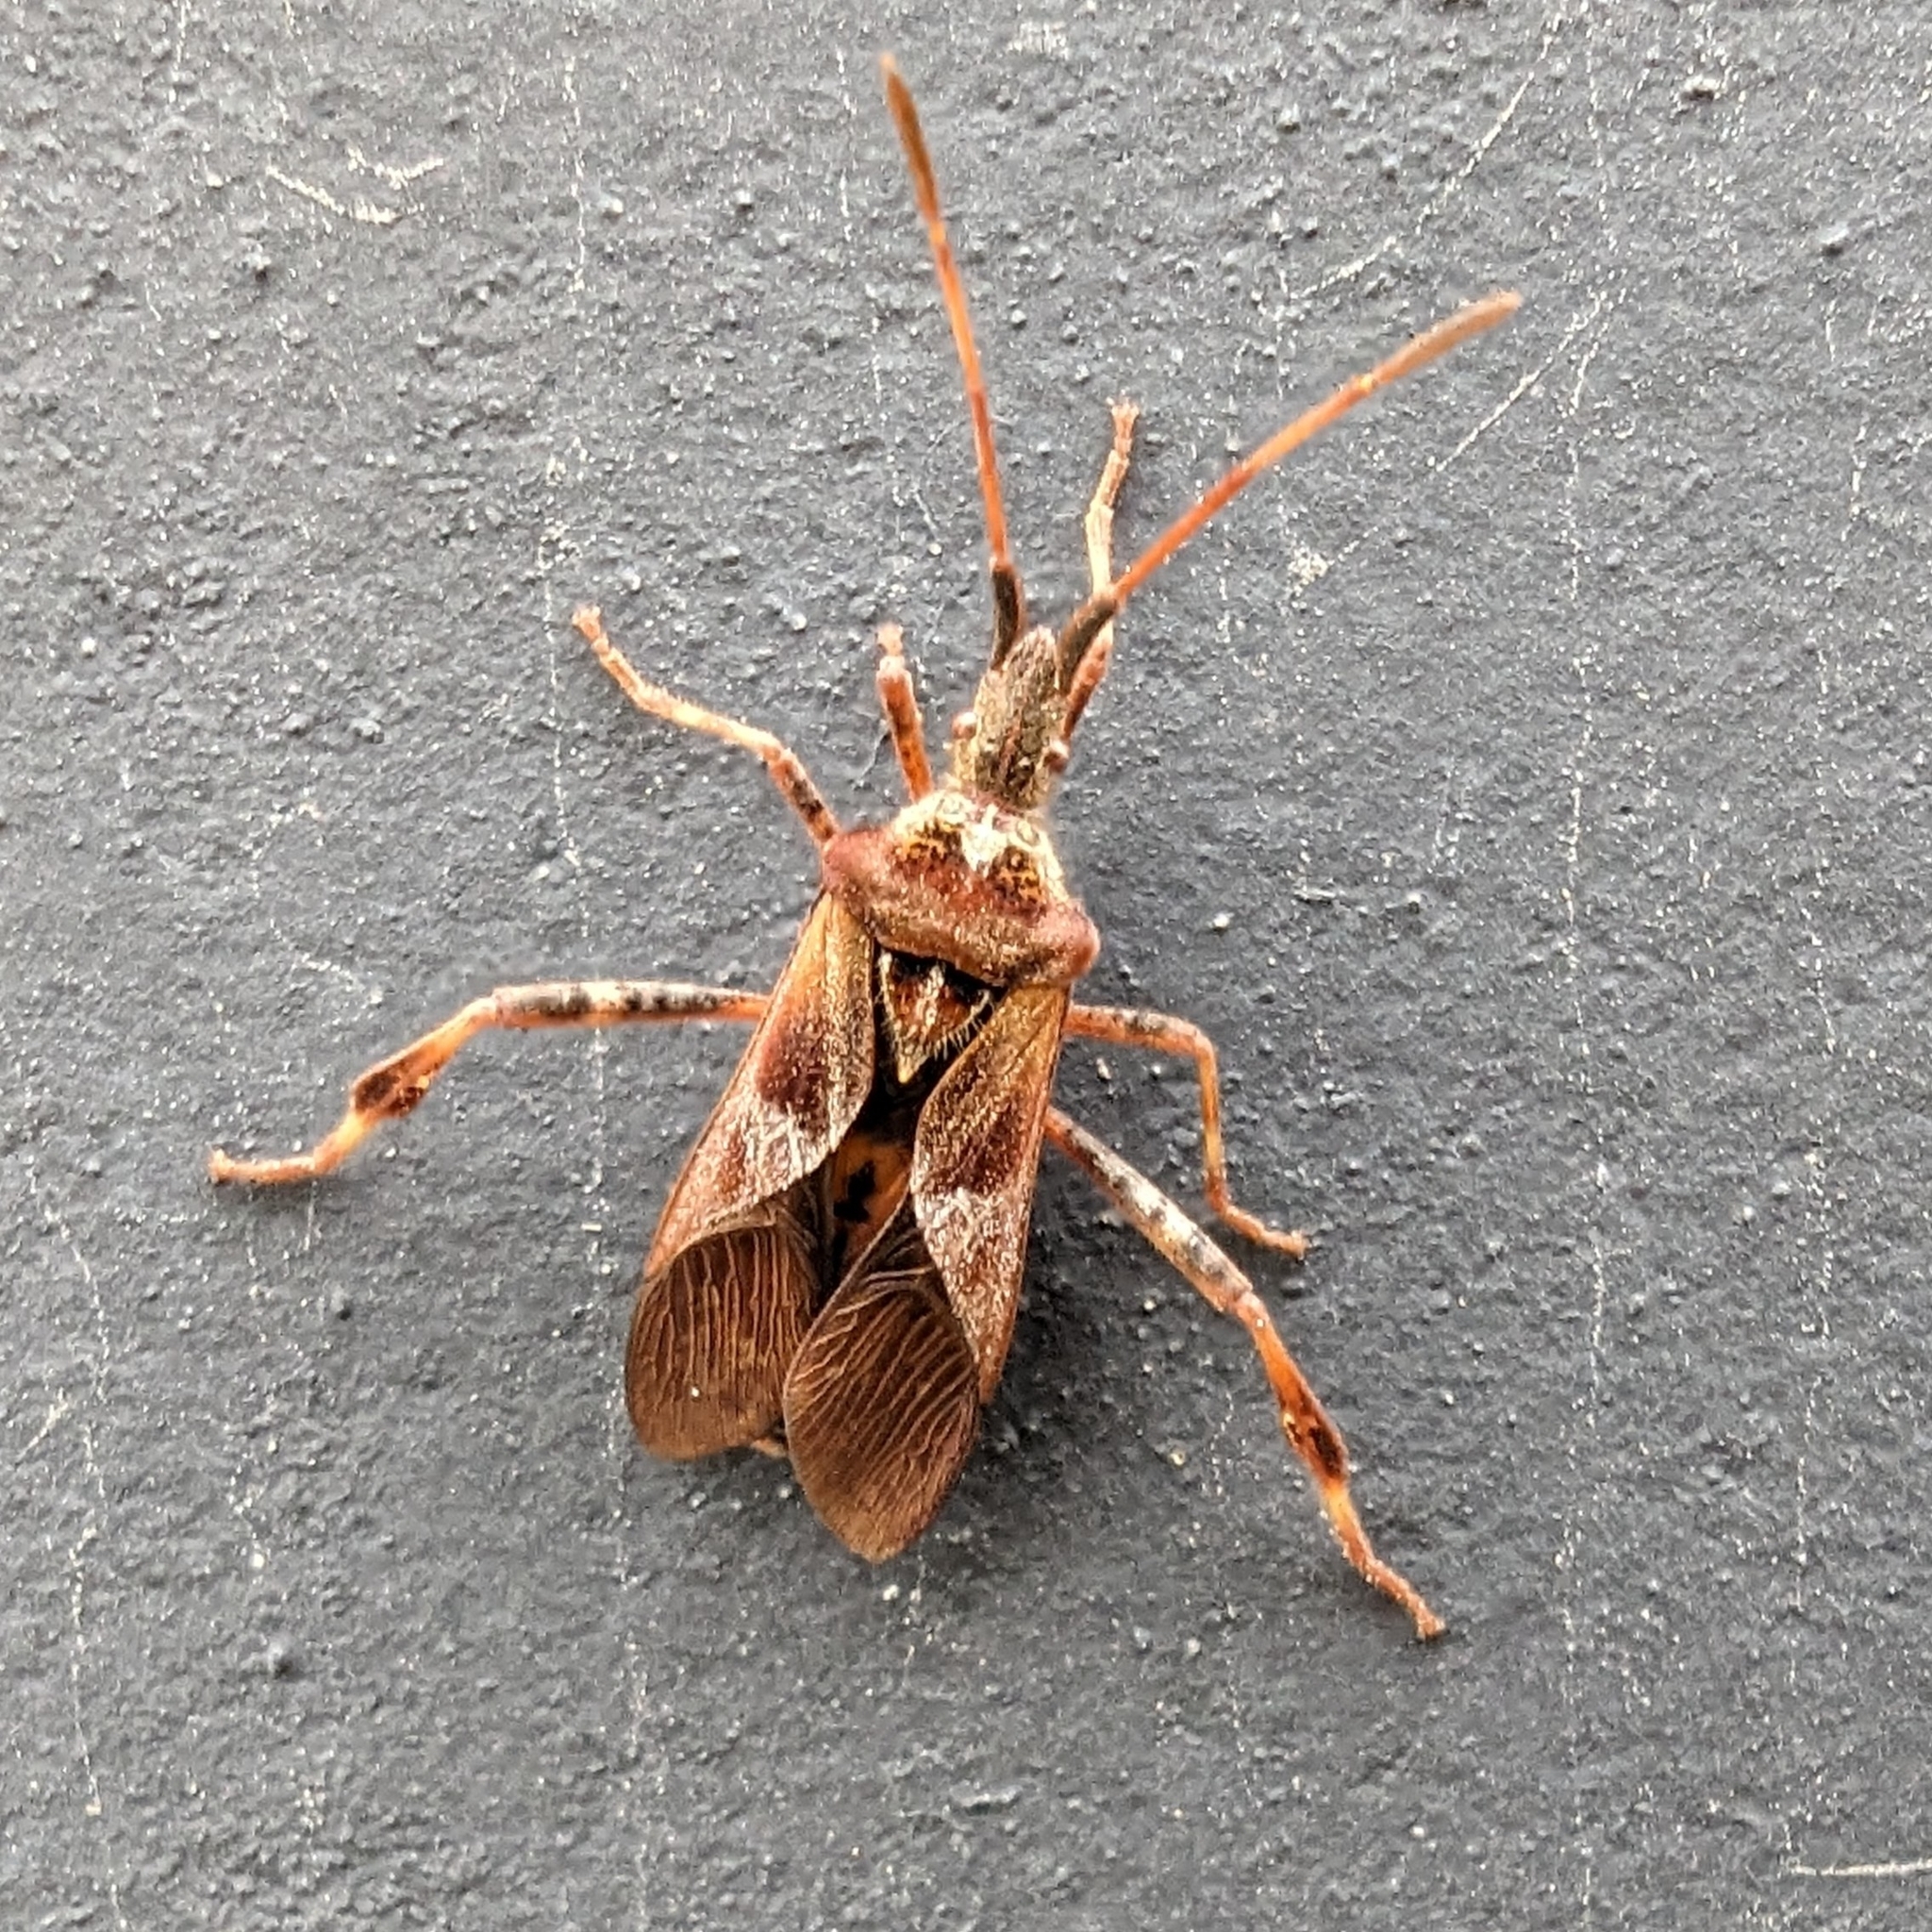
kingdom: Animalia
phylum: Arthropoda
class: Insecta
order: Hemiptera
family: Coreidae
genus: Leptoglossus
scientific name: Leptoglossus occidentalis
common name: Western conifer-seed bug
